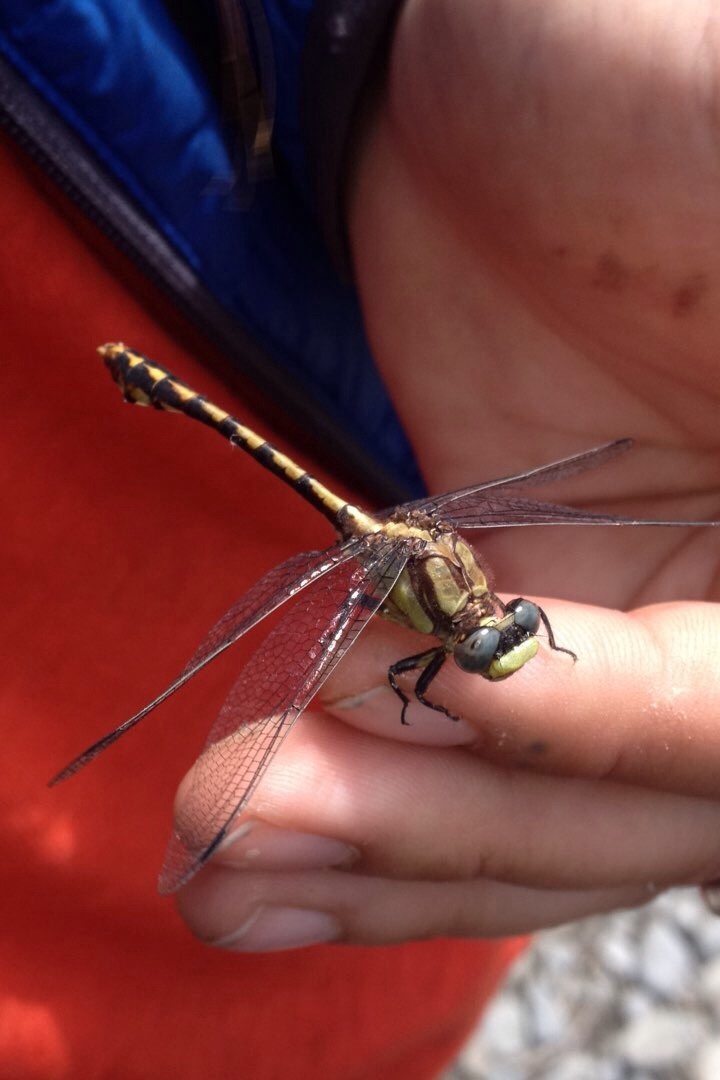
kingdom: Animalia
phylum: Arthropoda
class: Insecta
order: Odonata
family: Gomphidae
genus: Phanogomphus
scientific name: Phanogomphus kurilis
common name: Pacific clubtail
